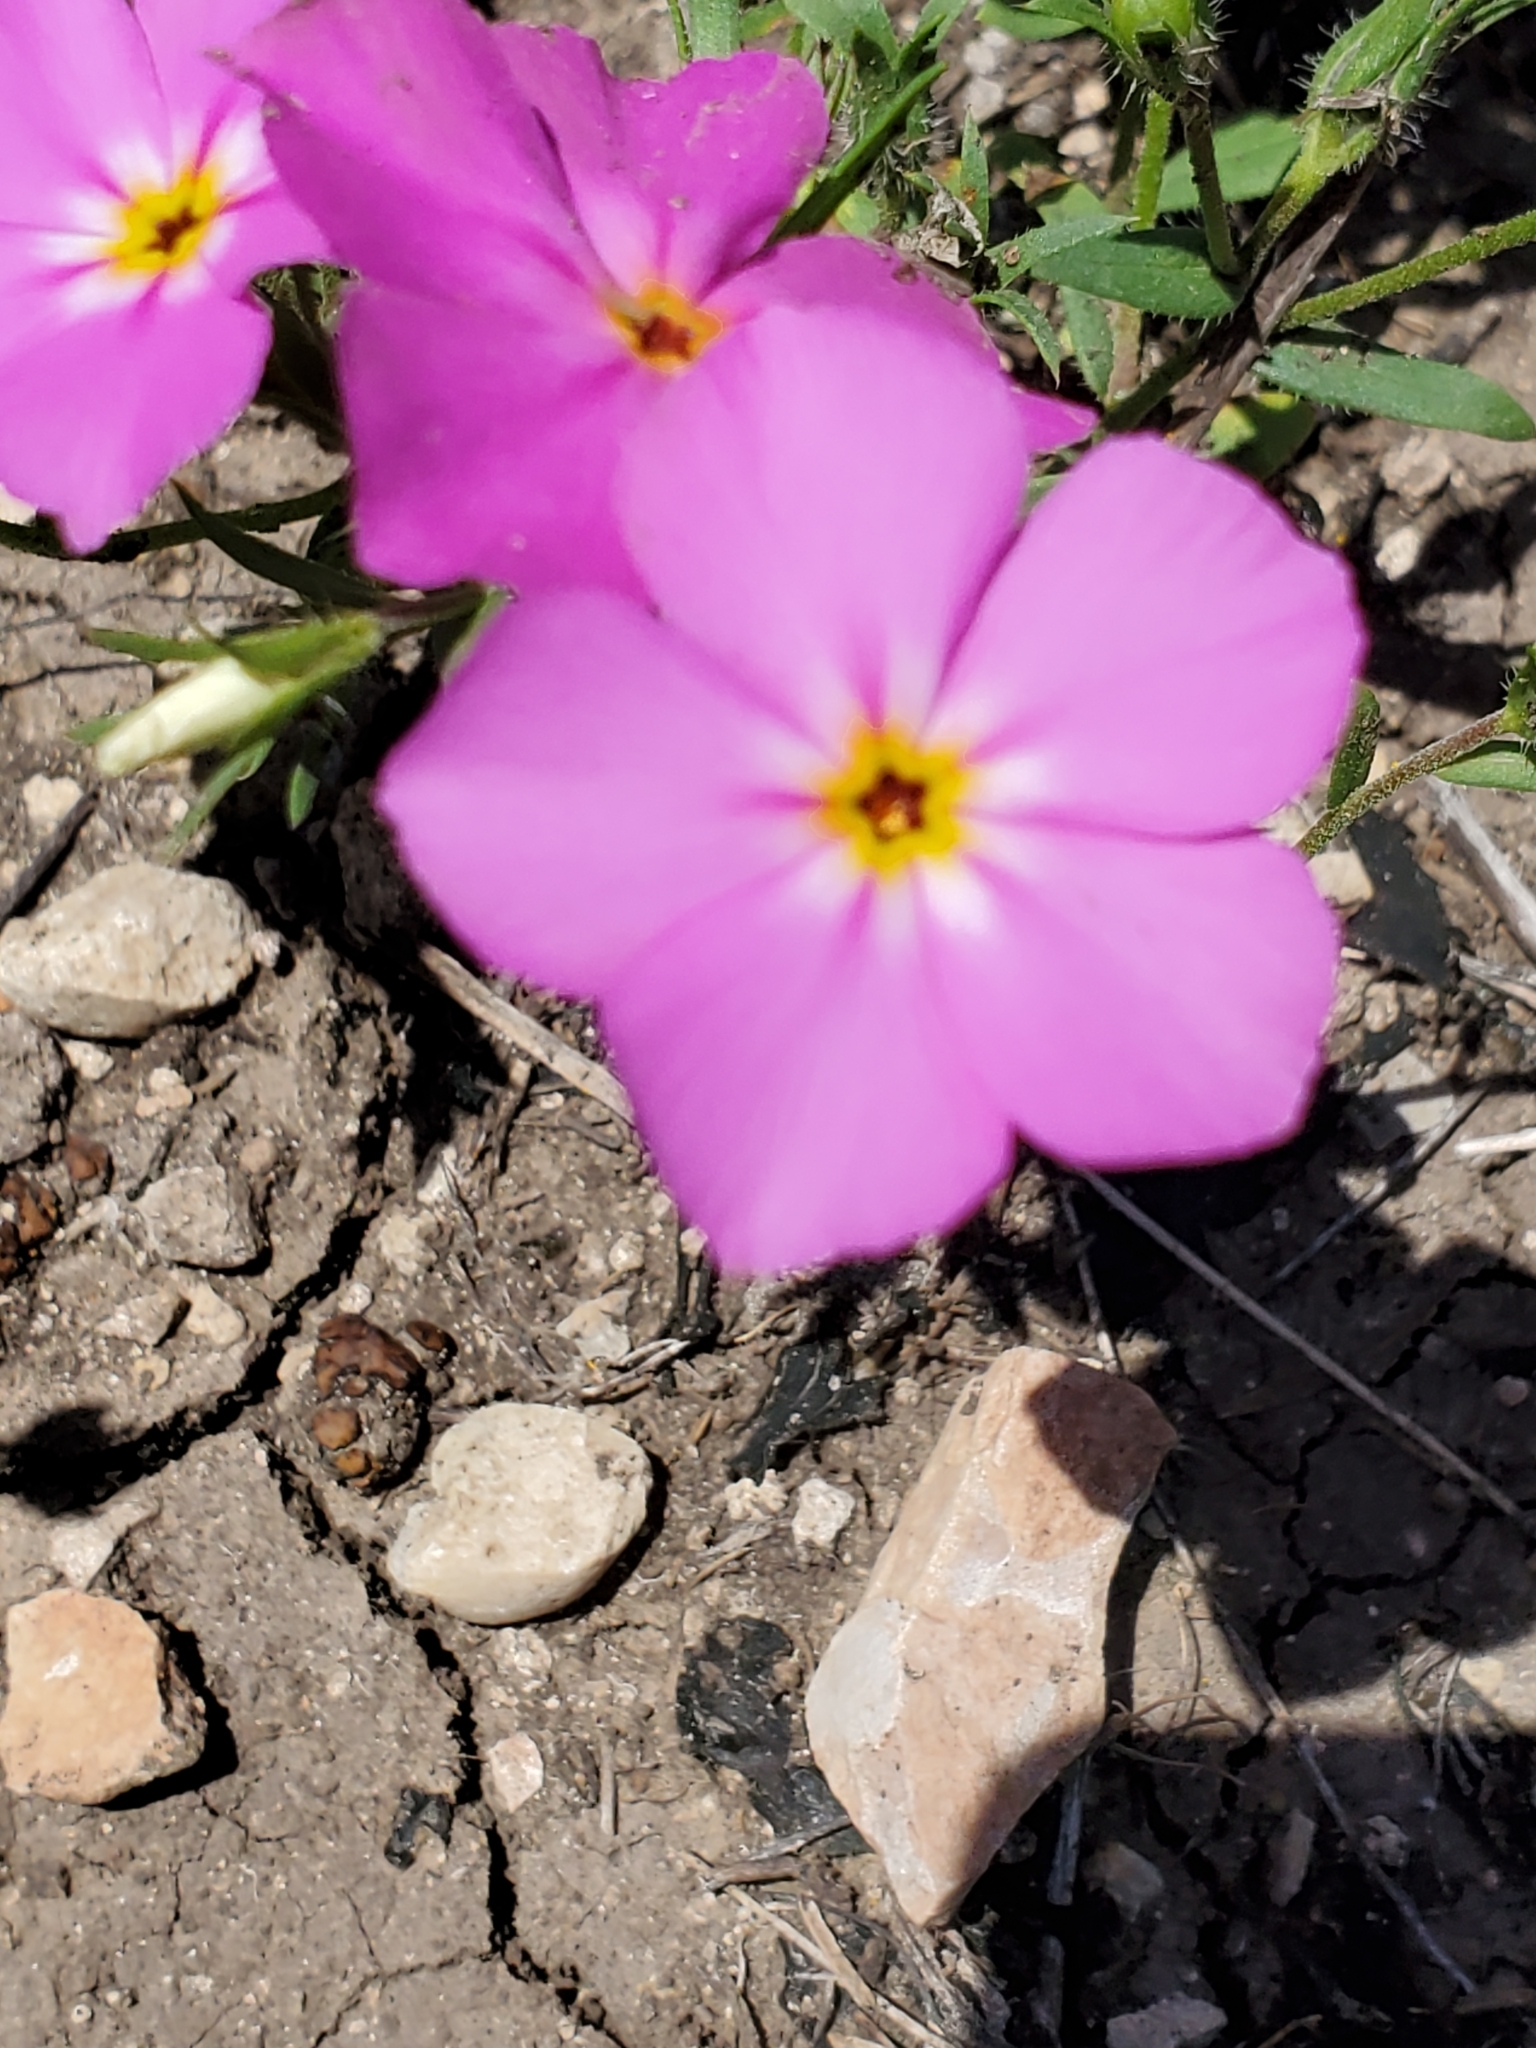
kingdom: Plantae
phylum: Tracheophyta
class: Magnoliopsida
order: Ericales
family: Polemoniaceae
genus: Phlox
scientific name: Phlox roemeriana
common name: Roemer's phlox
